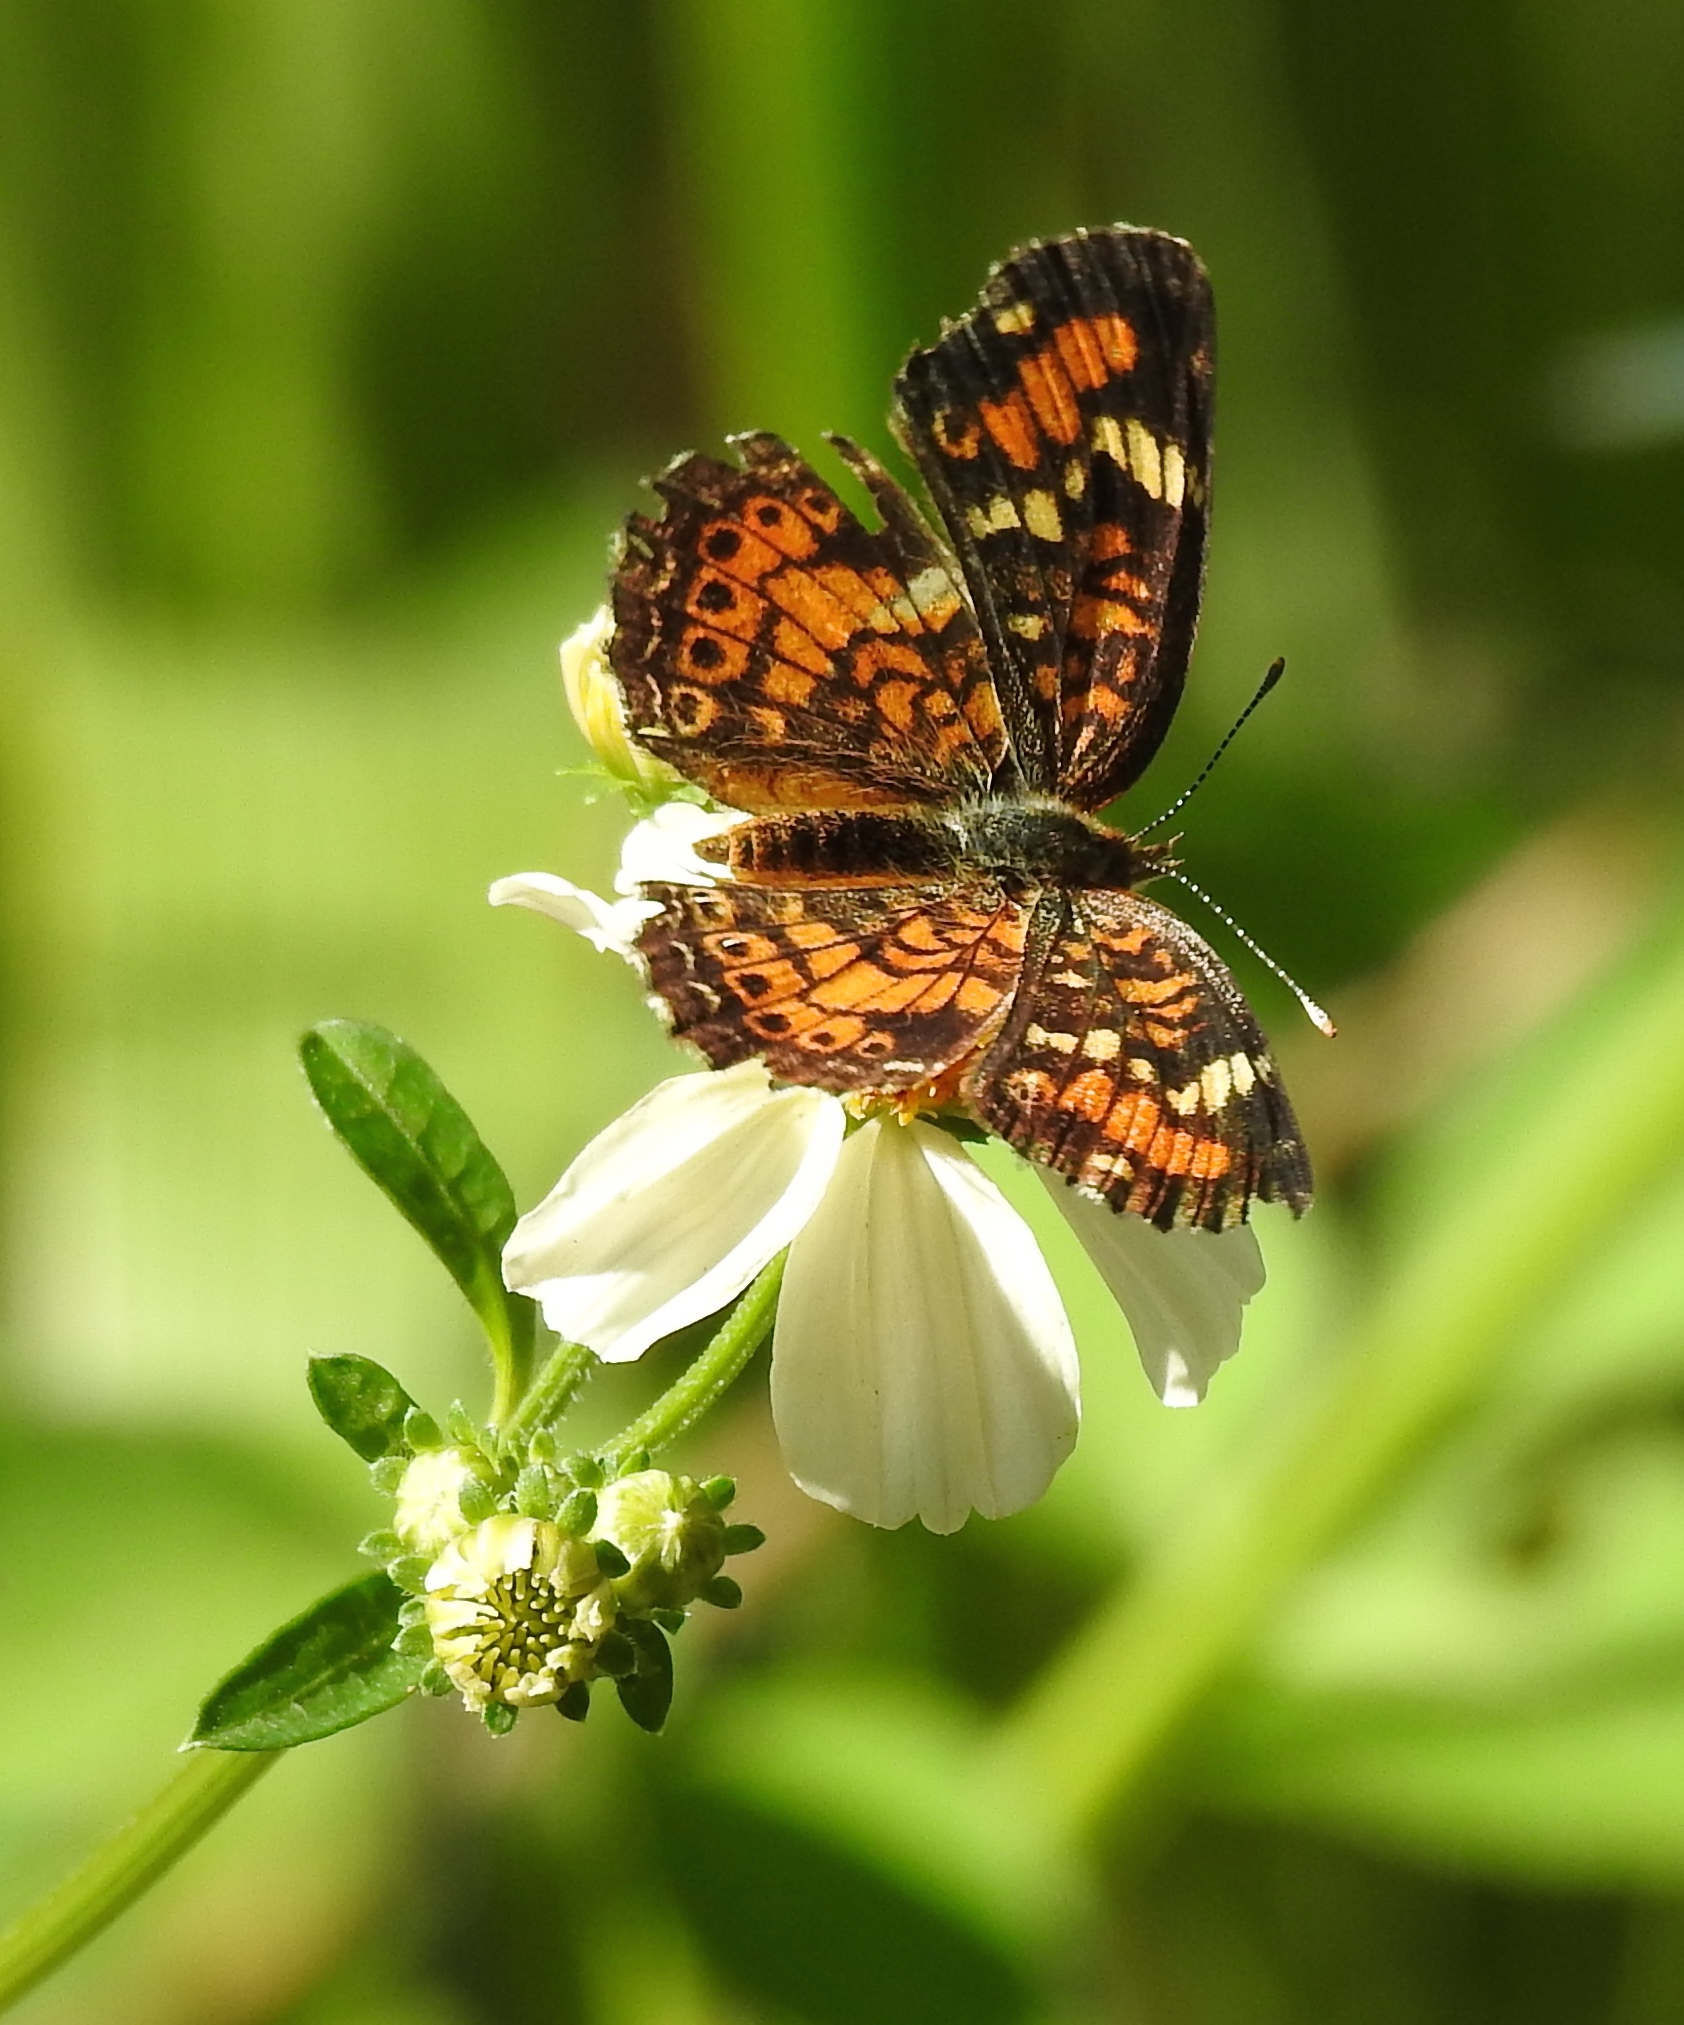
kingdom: Animalia
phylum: Arthropoda
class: Insecta
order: Lepidoptera
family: Nymphalidae
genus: Phyciodes
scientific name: Phyciodes phaon
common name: Phaon crescent
